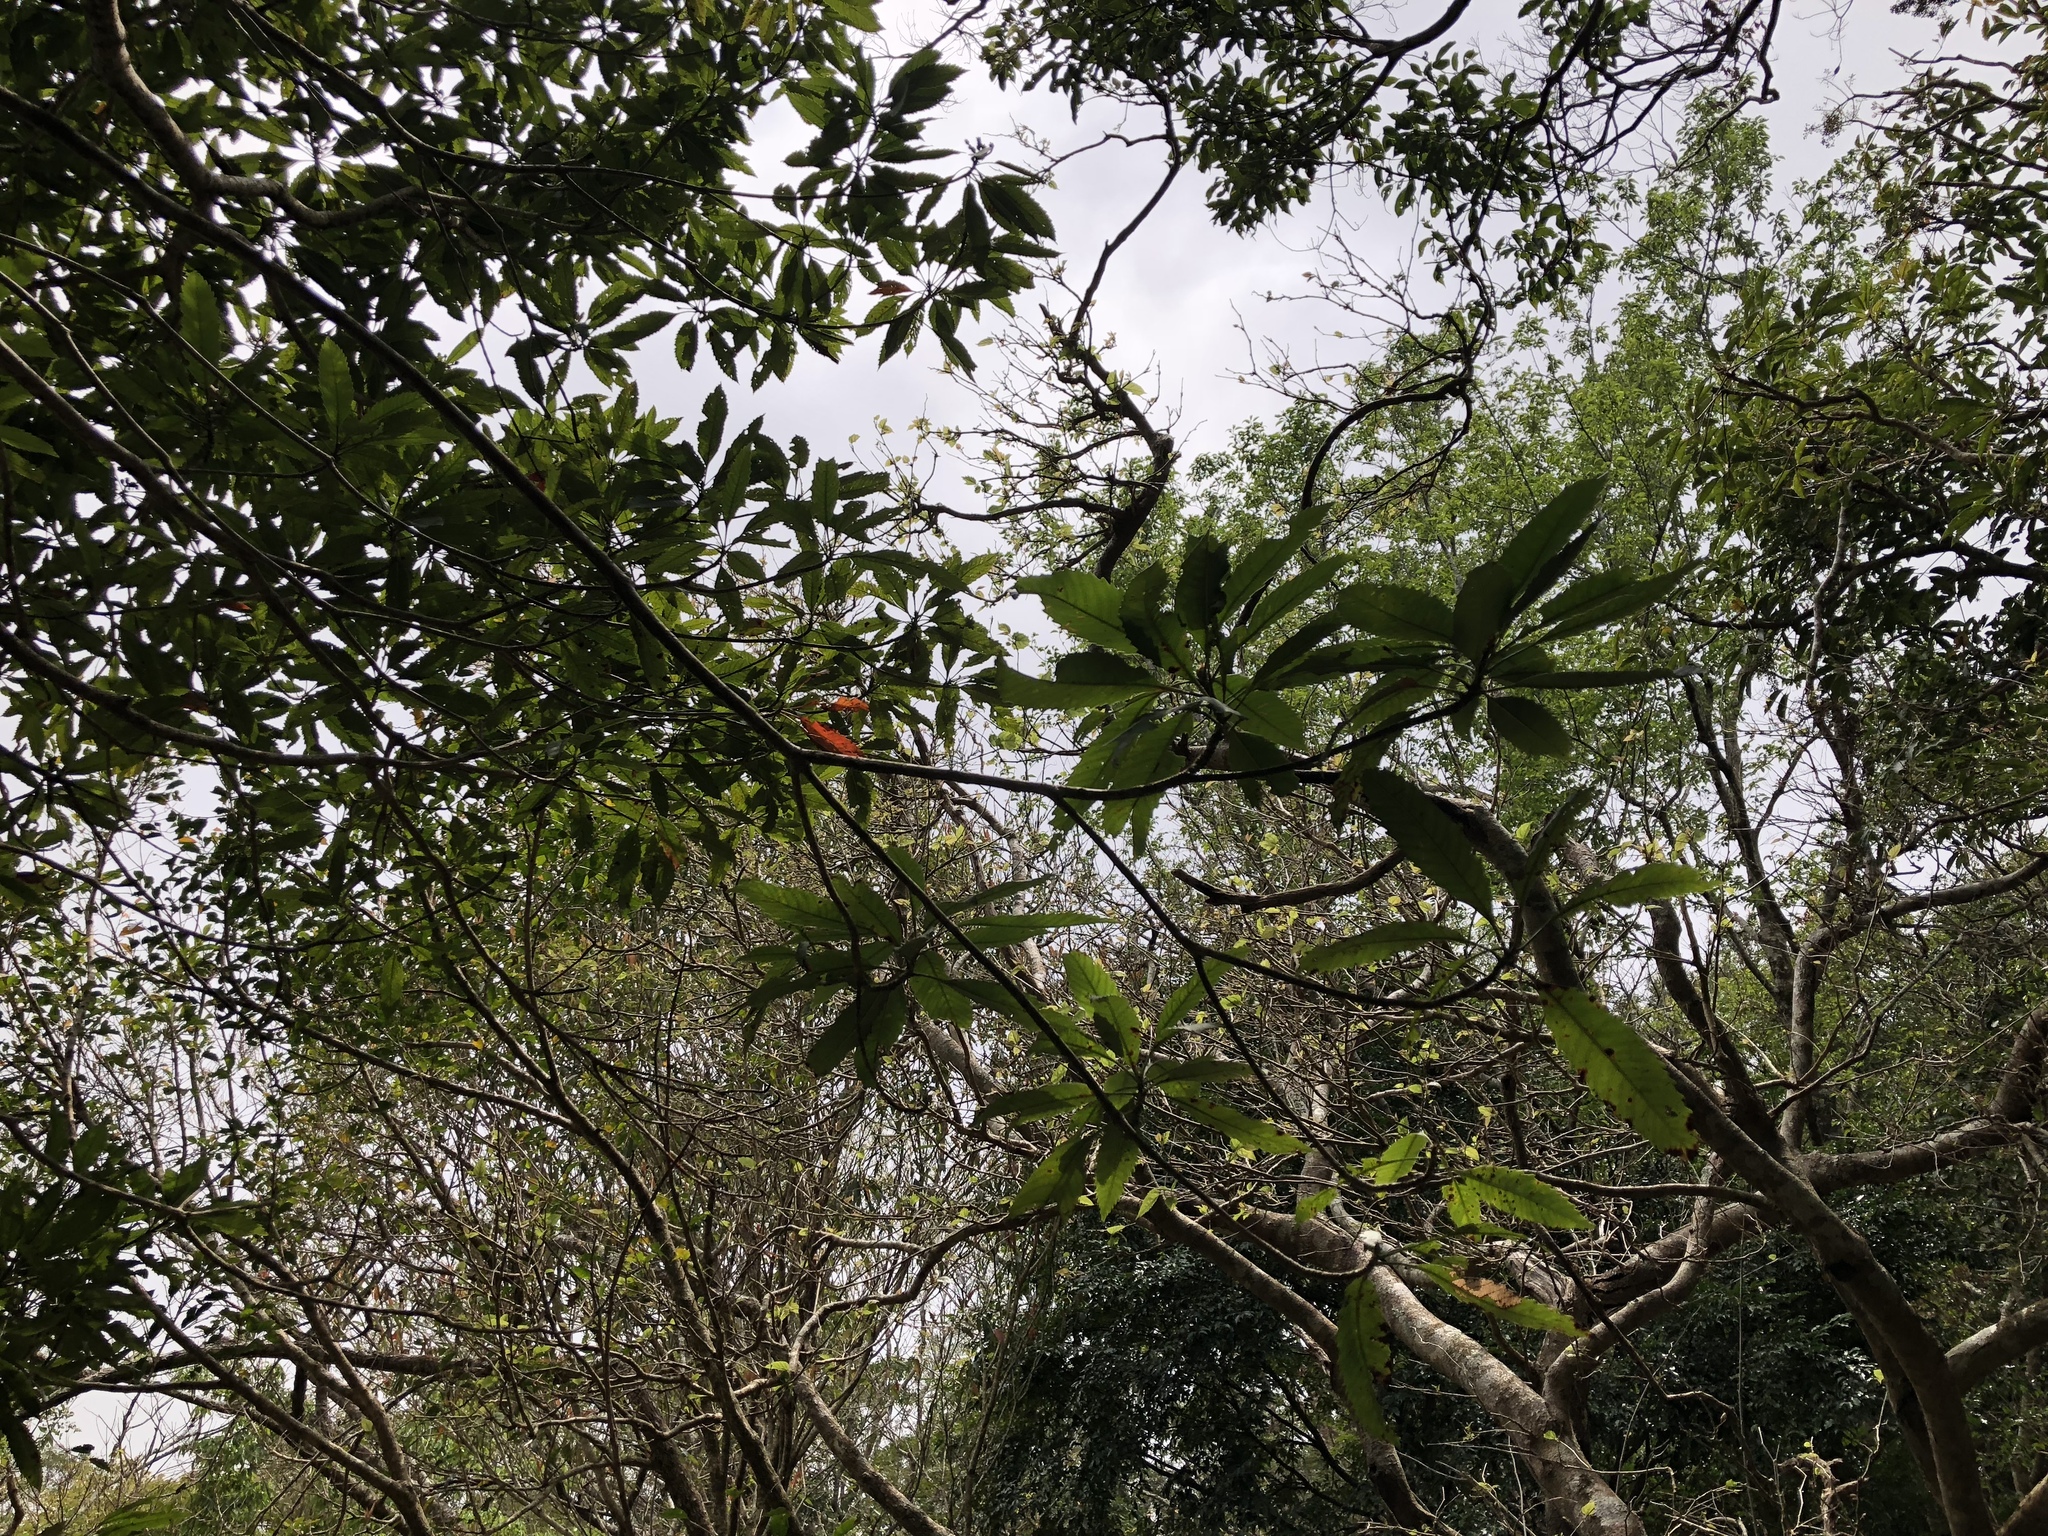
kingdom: Plantae
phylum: Tracheophyta
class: Magnoliopsida
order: Rosales
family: Rosaceae
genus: Rhaphiolepis
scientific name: Rhaphiolepis deflexa
